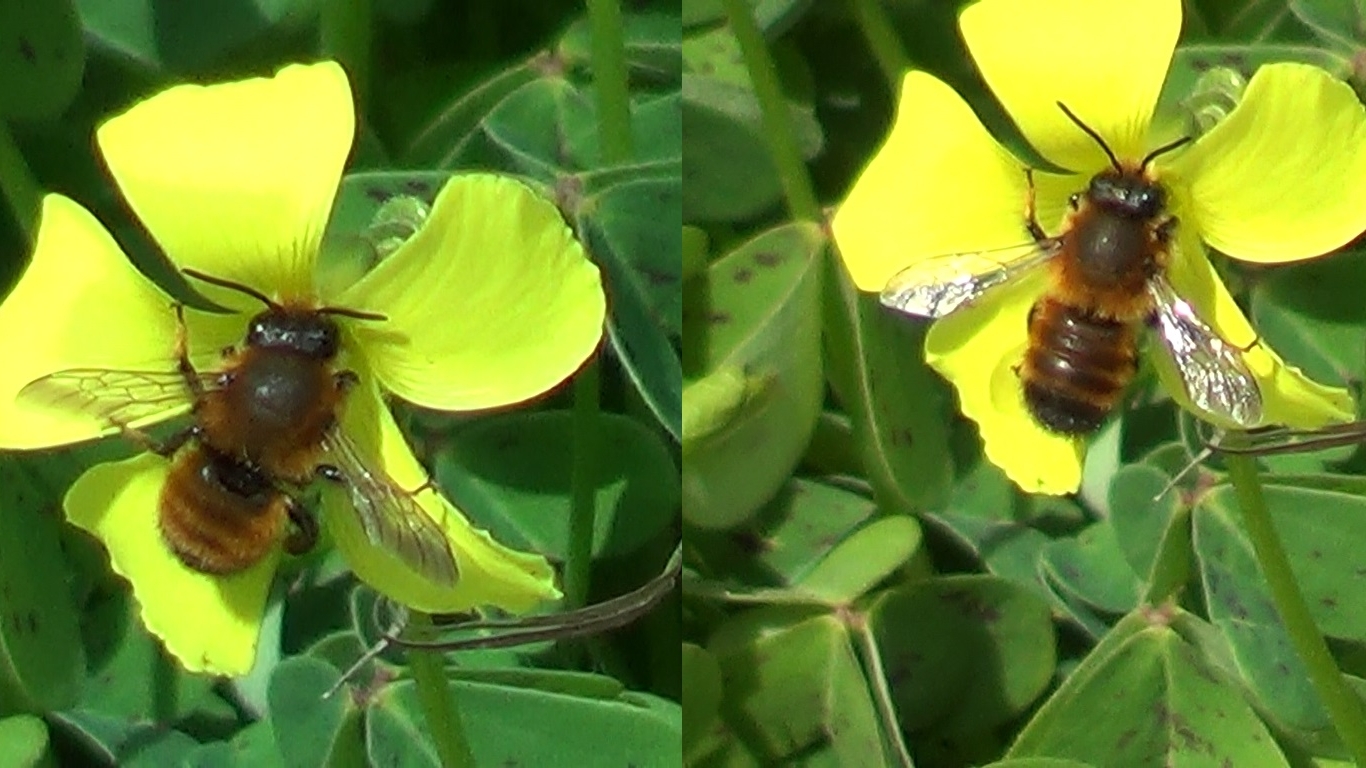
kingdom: Animalia
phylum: Arthropoda
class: Insecta
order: Hymenoptera
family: Megachilidae
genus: Megachile
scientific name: Megachile parietina
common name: Black mud bee
